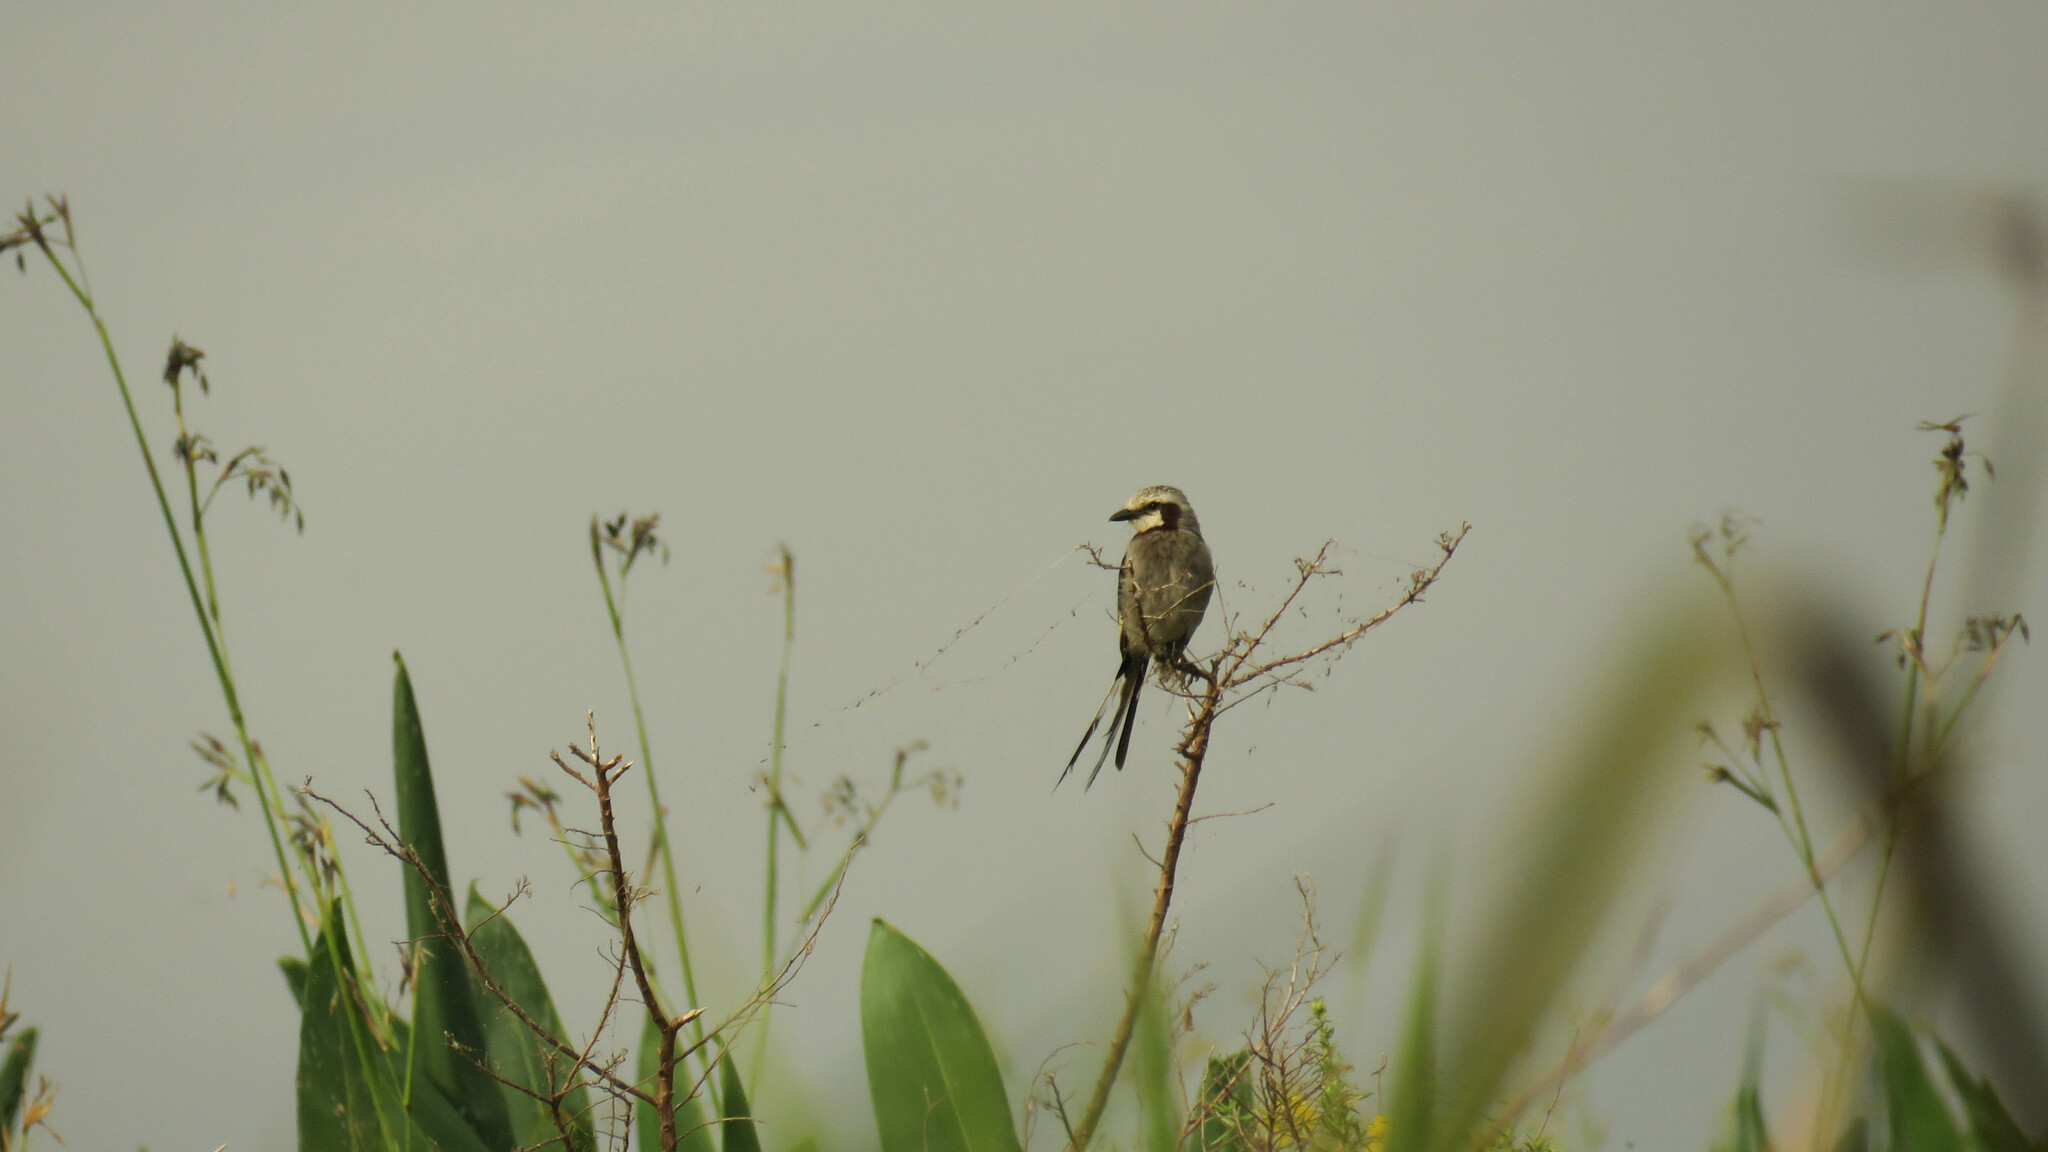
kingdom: Animalia
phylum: Chordata
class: Aves
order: Passeriformes
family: Tyrannidae
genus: Gubernetes
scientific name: Gubernetes yetapa
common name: Streamer-tailed tyrant
